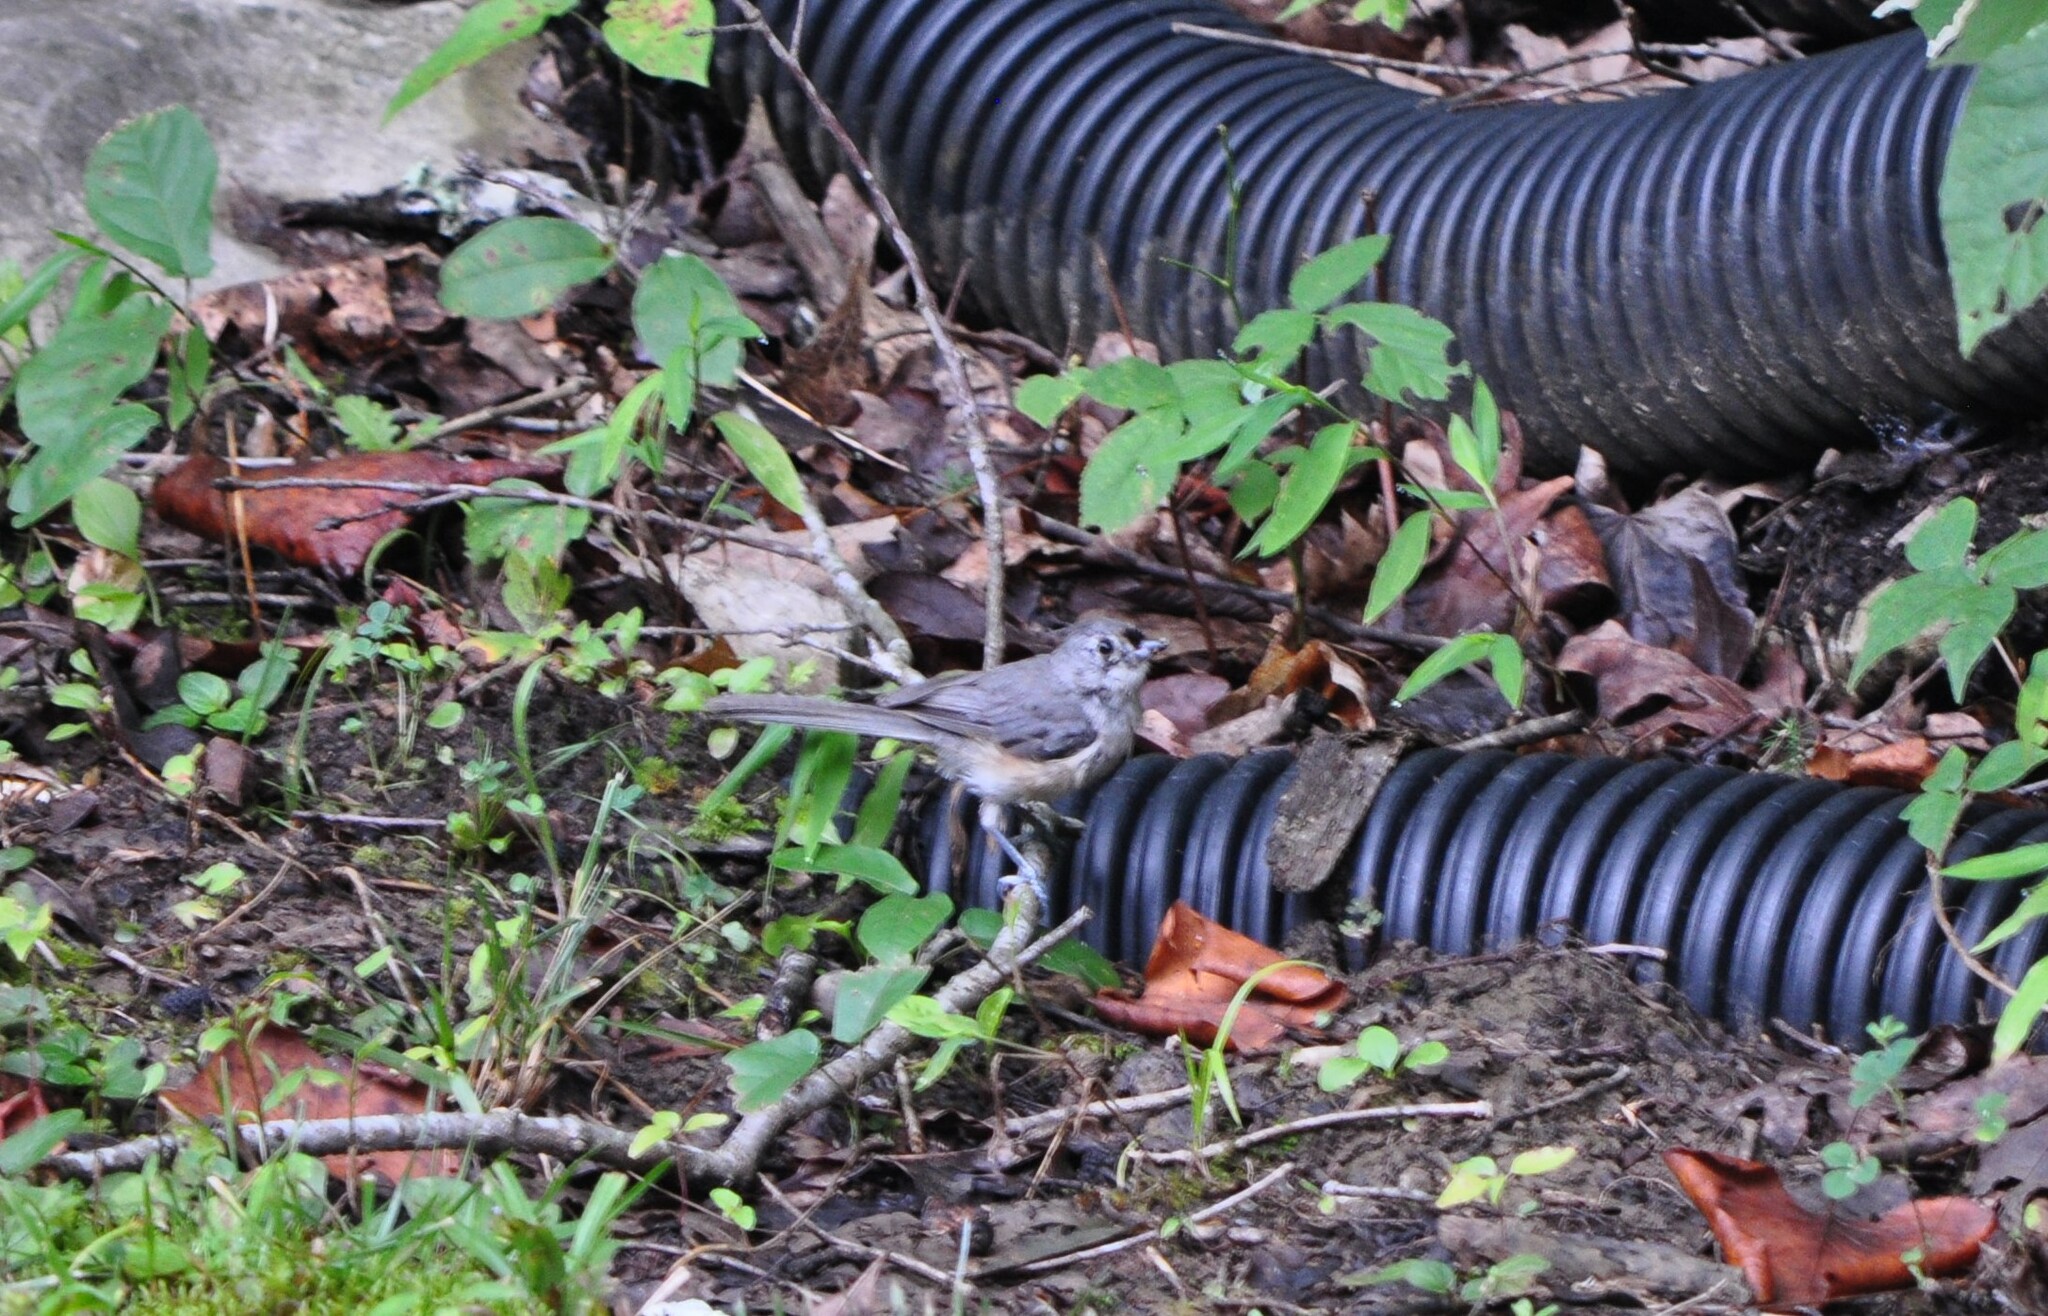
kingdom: Animalia
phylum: Chordata
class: Aves
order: Passeriformes
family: Paridae
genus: Baeolophus
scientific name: Baeolophus bicolor
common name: Tufted titmouse
